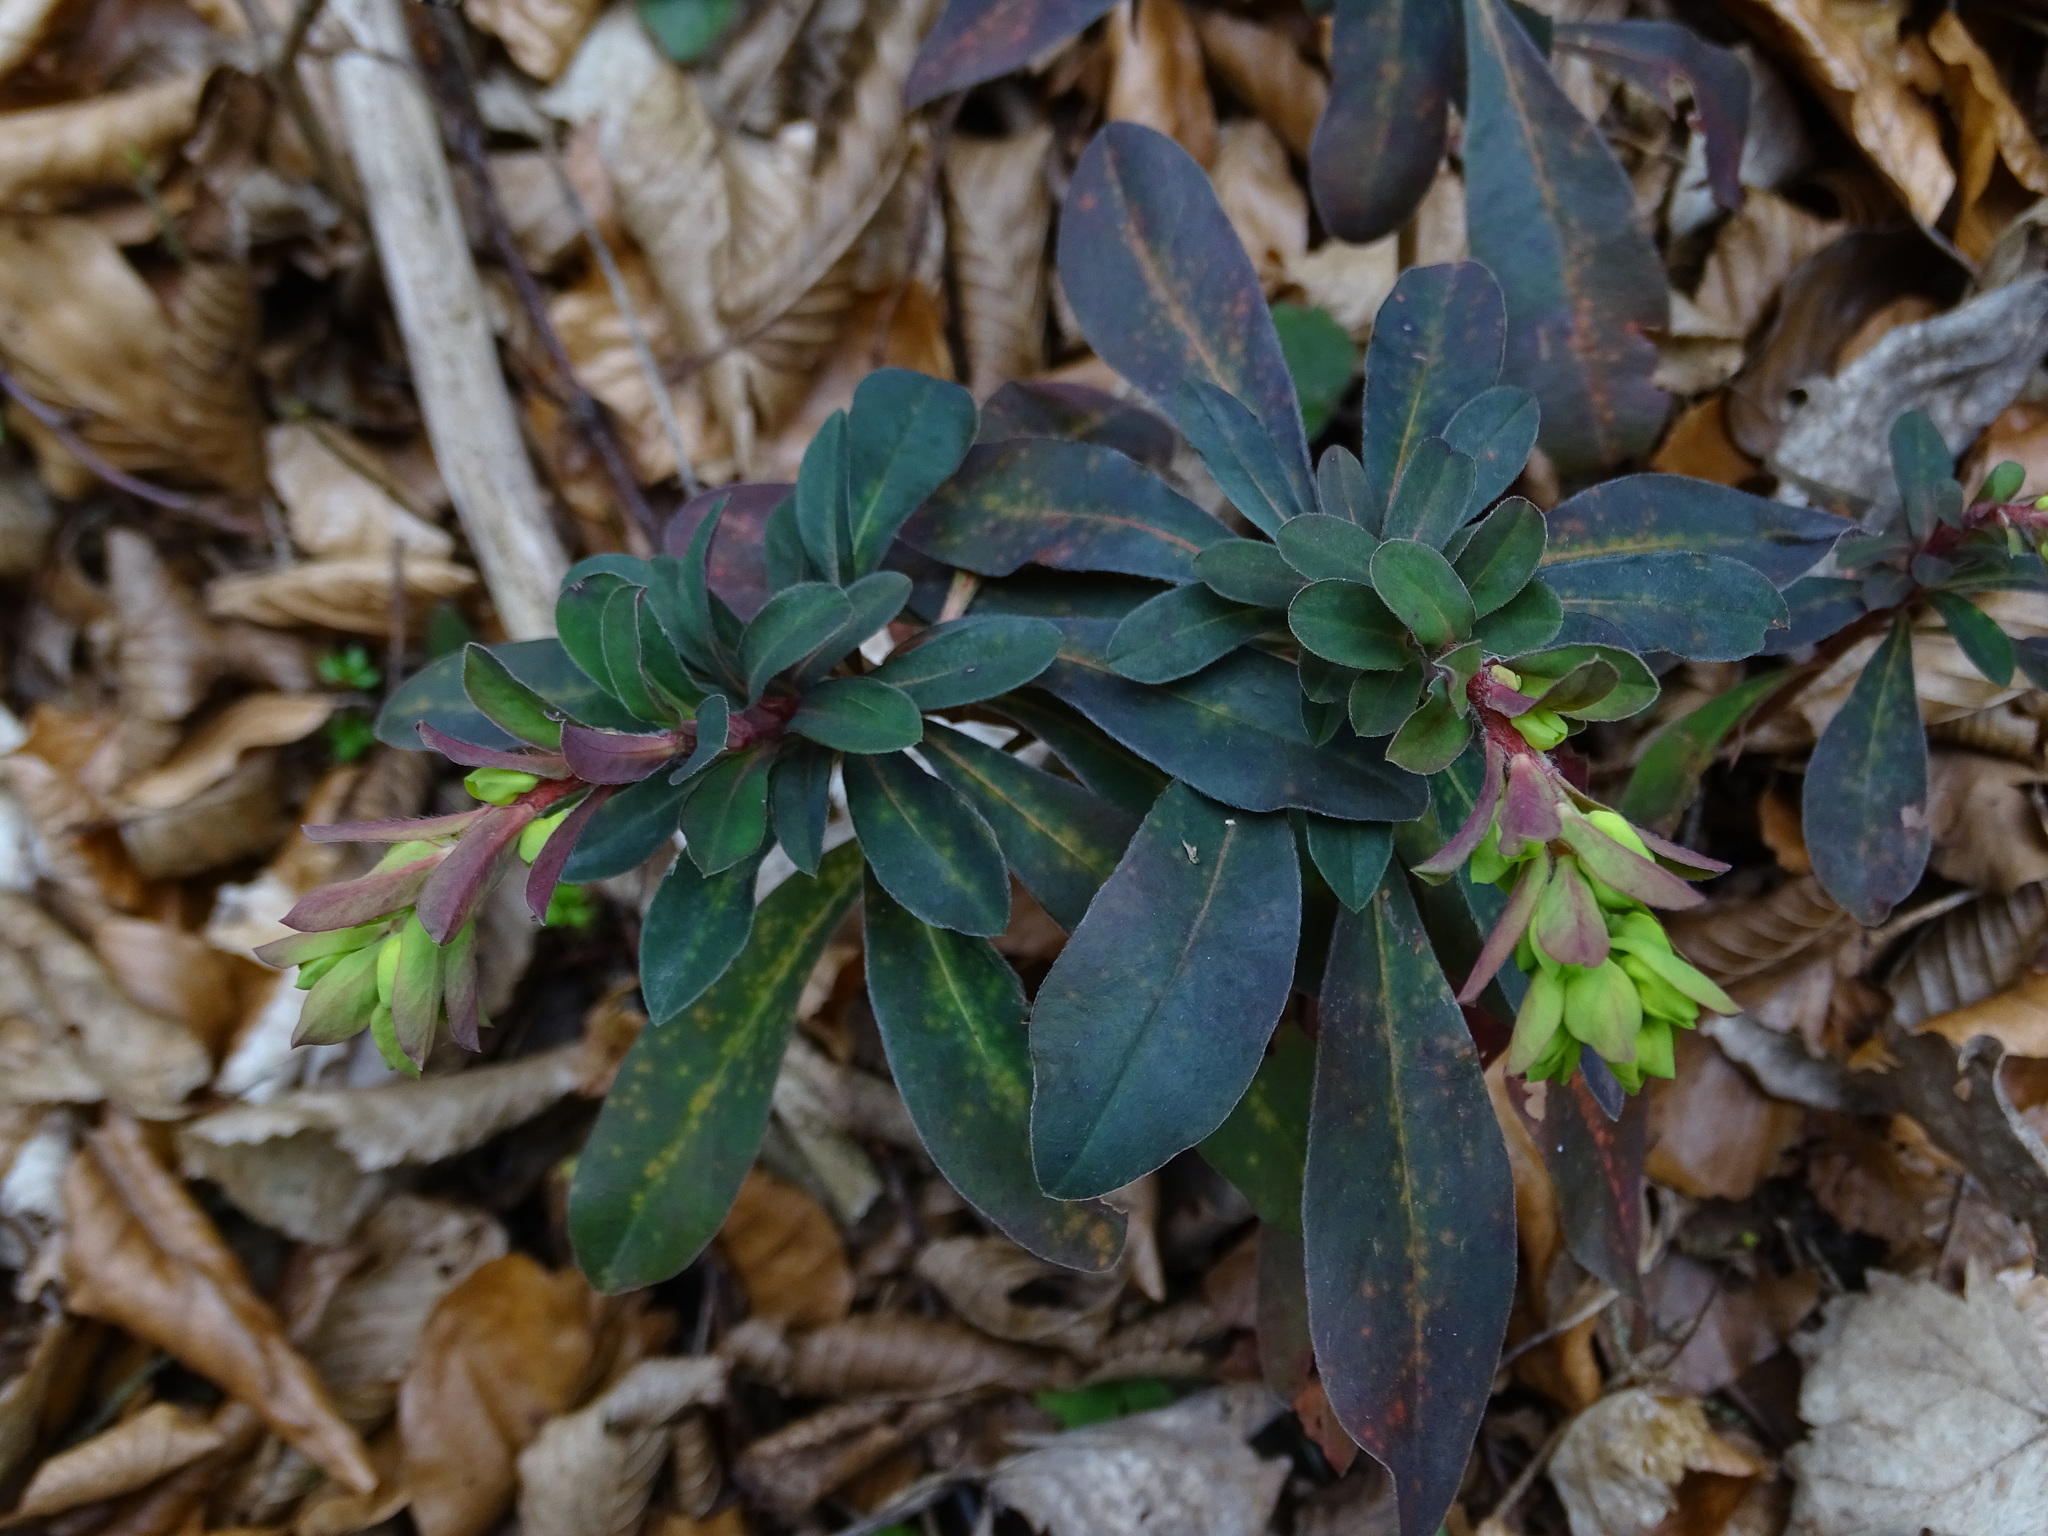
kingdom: Plantae
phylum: Tracheophyta
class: Magnoliopsida
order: Malpighiales
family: Euphorbiaceae
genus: Euphorbia
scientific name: Euphorbia amygdaloides
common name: Wood spurge
